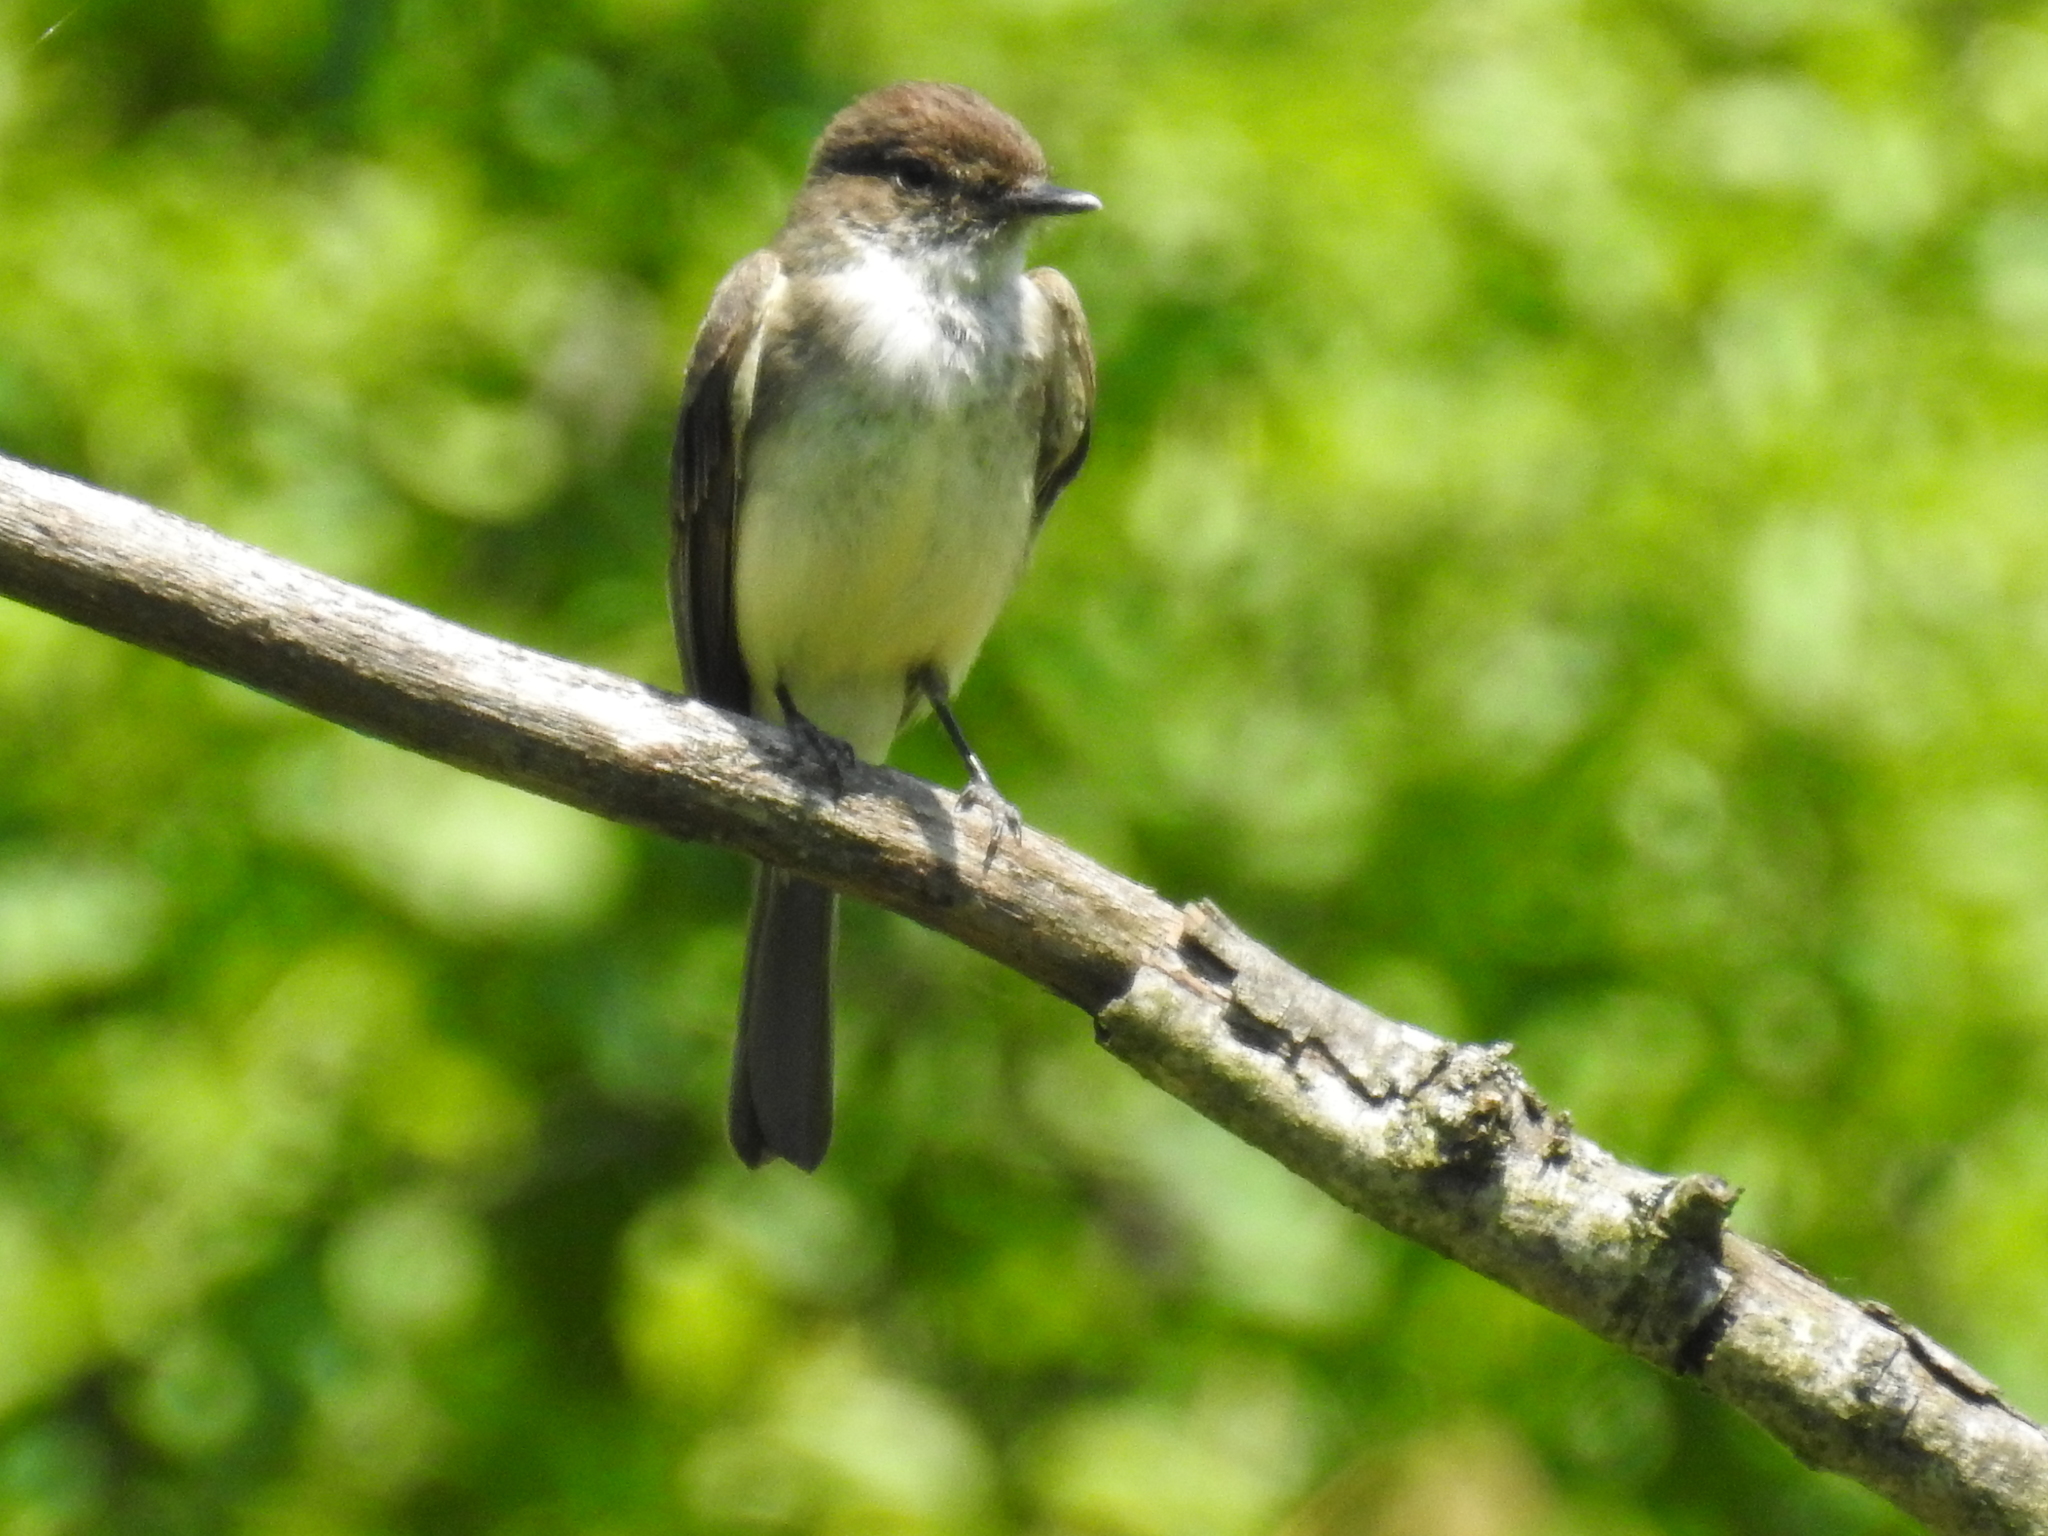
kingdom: Animalia
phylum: Chordata
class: Aves
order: Passeriformes
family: Tyrannidae
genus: Sayornis
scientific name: Sayornis phoebe
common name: Eastern phoebe
